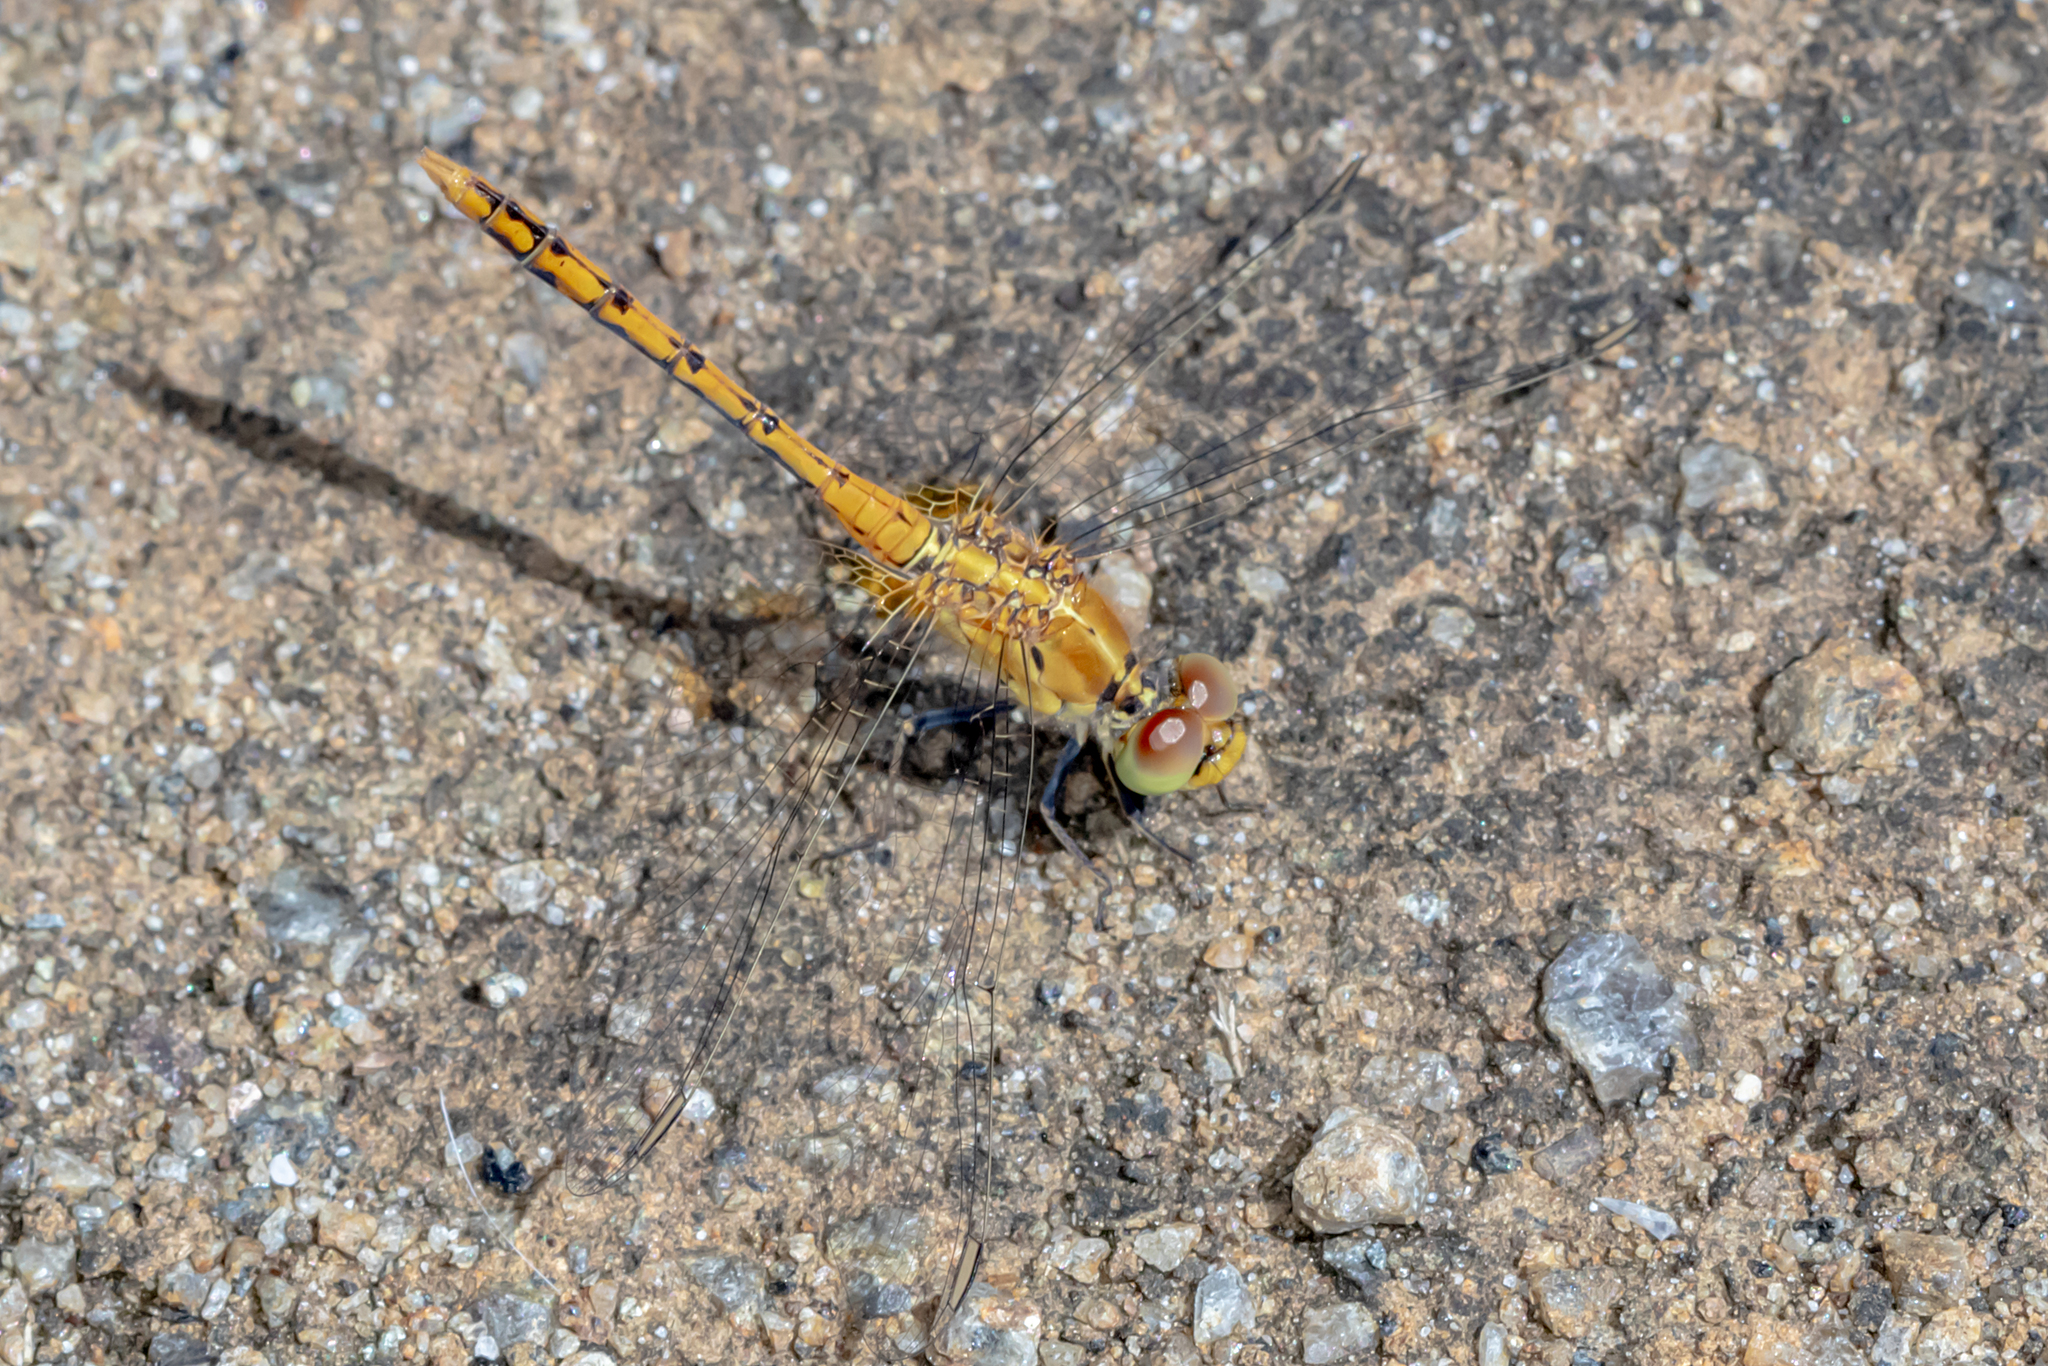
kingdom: Animalia
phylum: Arthropoda
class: Insecta
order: Odonata
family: Libellulidae
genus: Diplacodes
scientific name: Diplacodes bipunctata
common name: Red percher dragonfly
